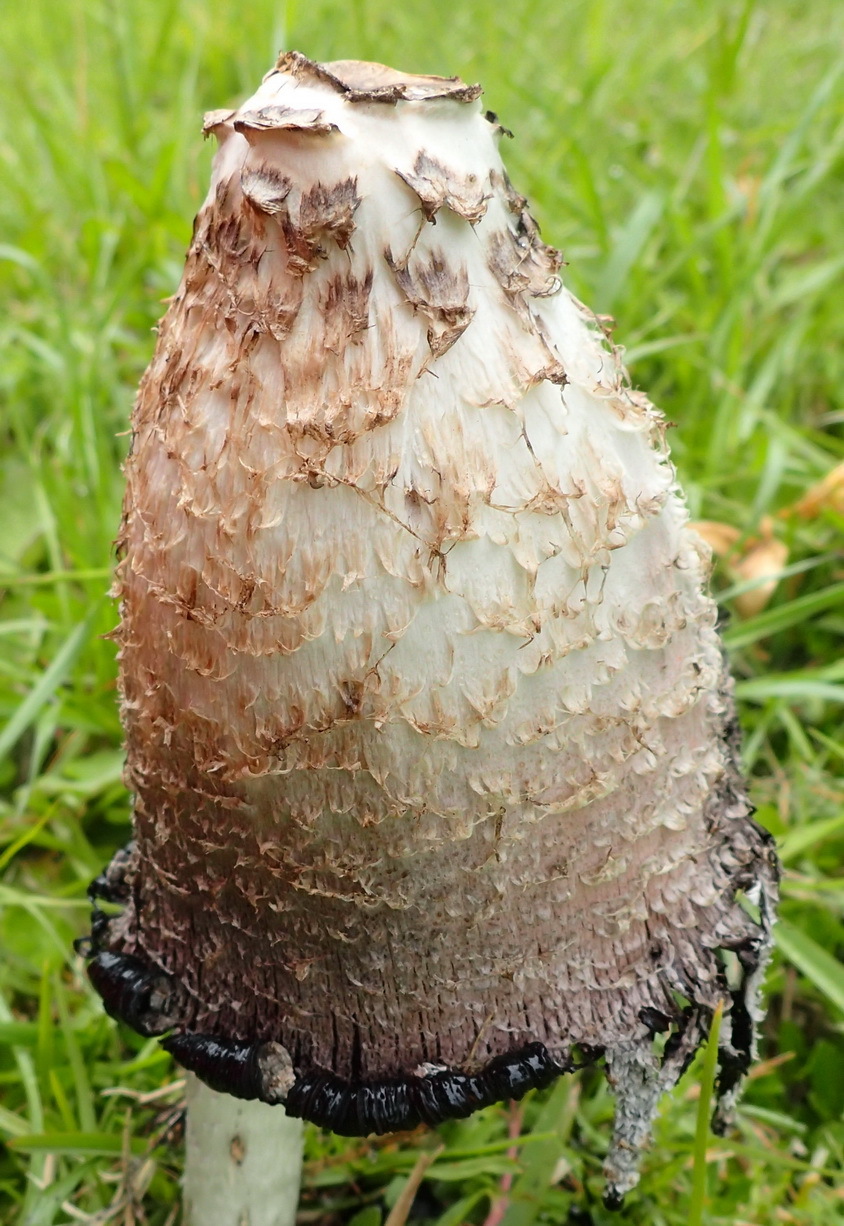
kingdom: Fungi
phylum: Basidiomycota
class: Agaricomycetes
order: Agaricales
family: Agaricaceae
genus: Coprinus
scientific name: Coprinus comatus
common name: Lawyer's wig
